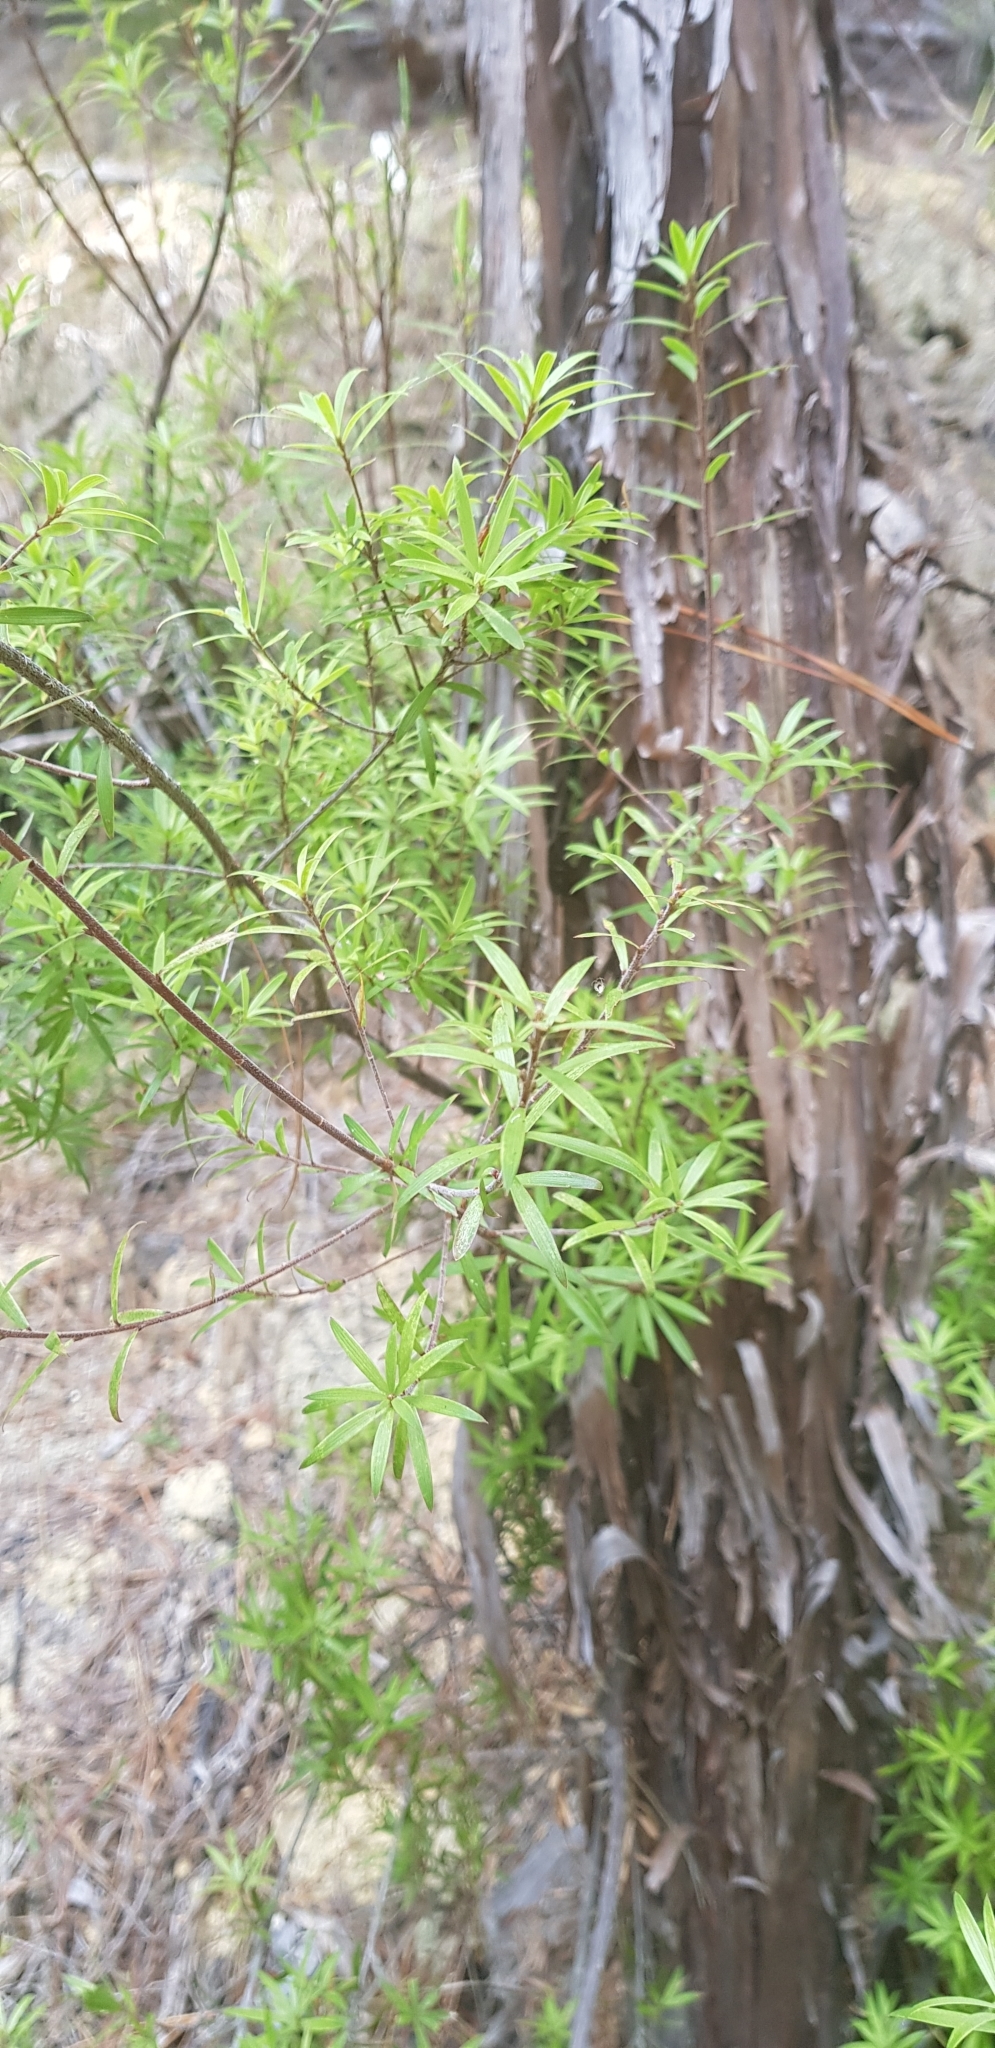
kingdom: Plantae
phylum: Tracheophyta
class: Magnoliopsida
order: Ericales
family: Ericaceae
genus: Leucopogon
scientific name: Leucopogon fasciculatus
